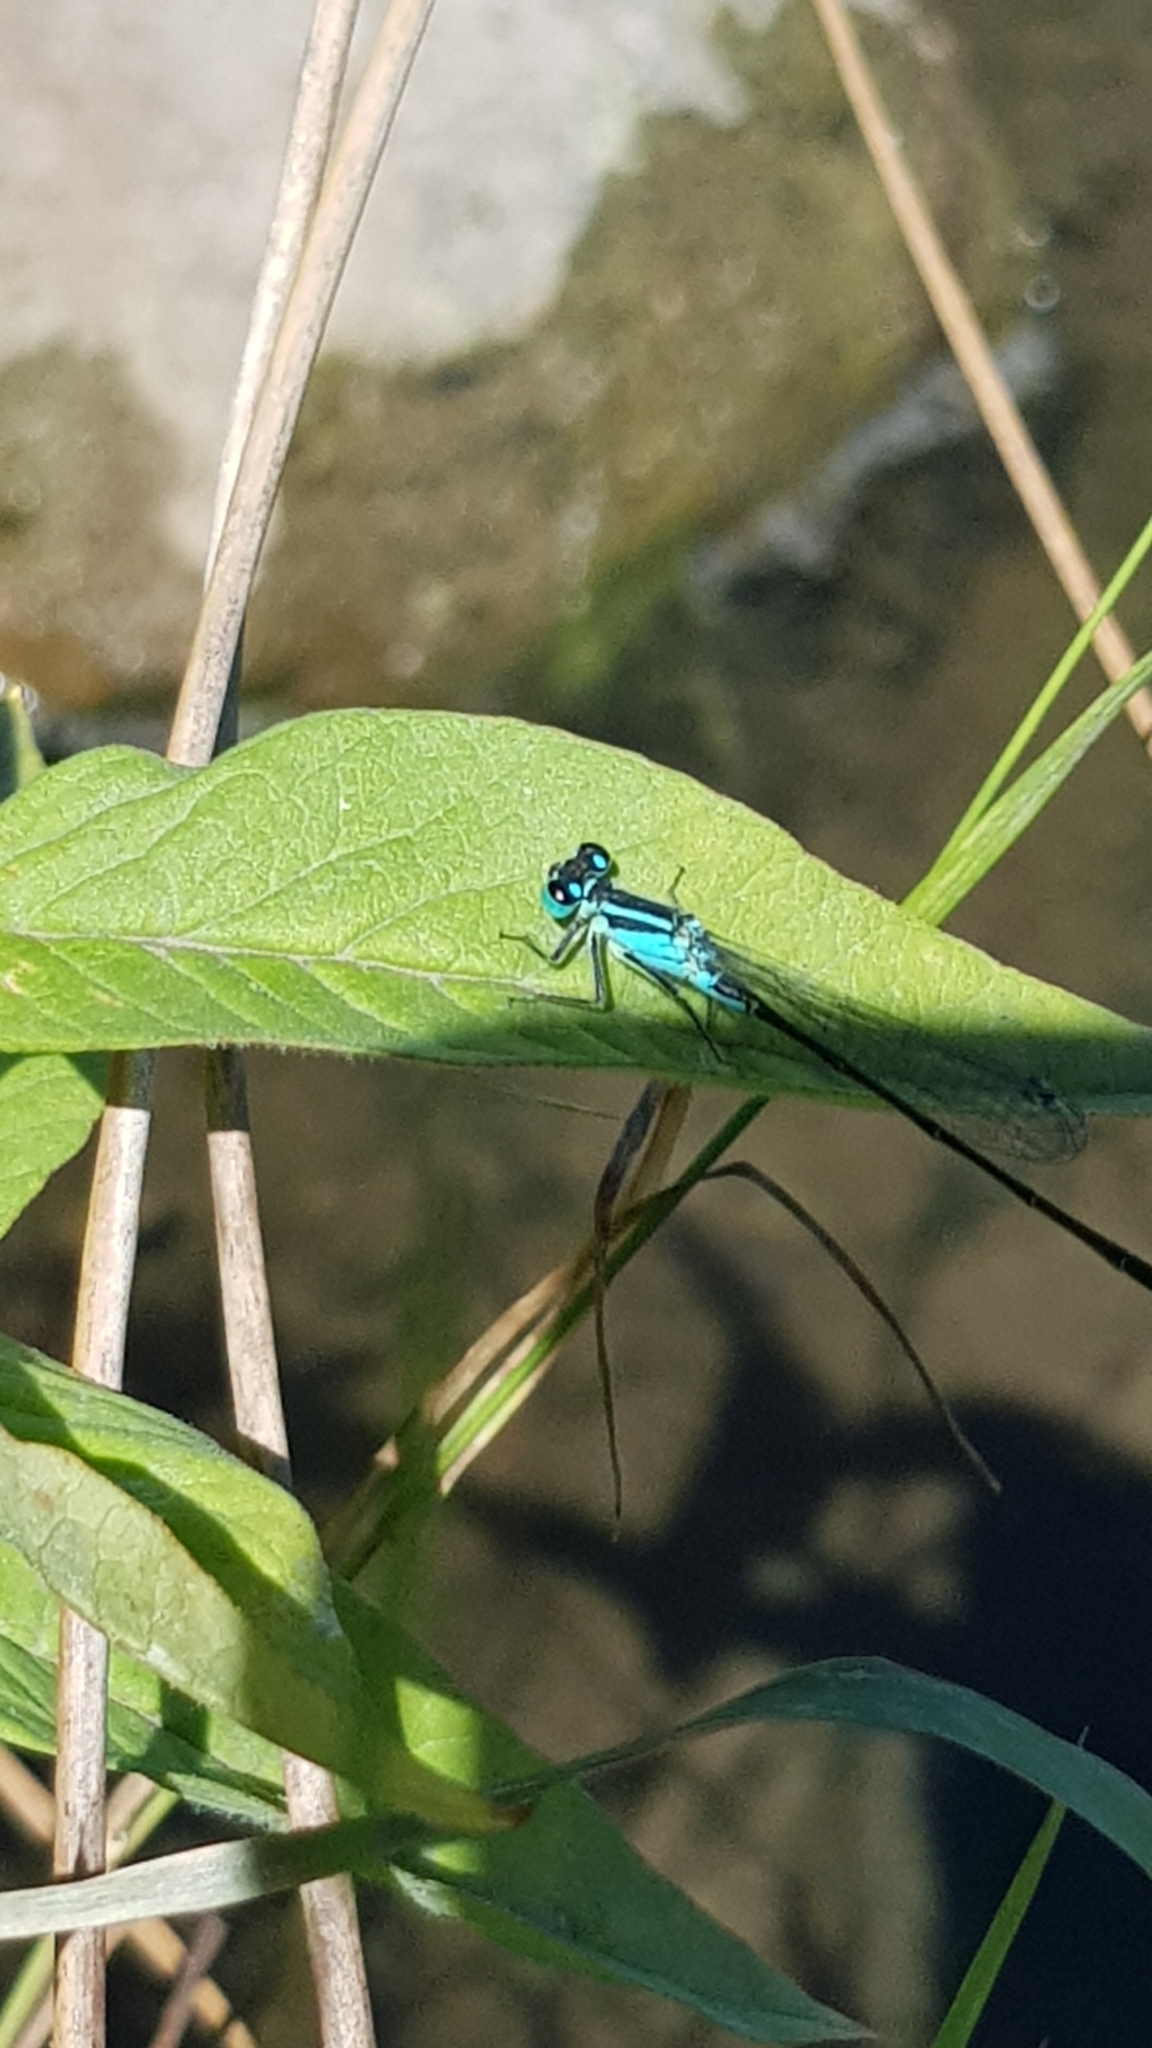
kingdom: Animalia
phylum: Arthropoda
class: Insecta
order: Odonata
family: Coenagrionidae
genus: Ischnura
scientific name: Ischnura elegans
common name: Blue-tailed damselfly
